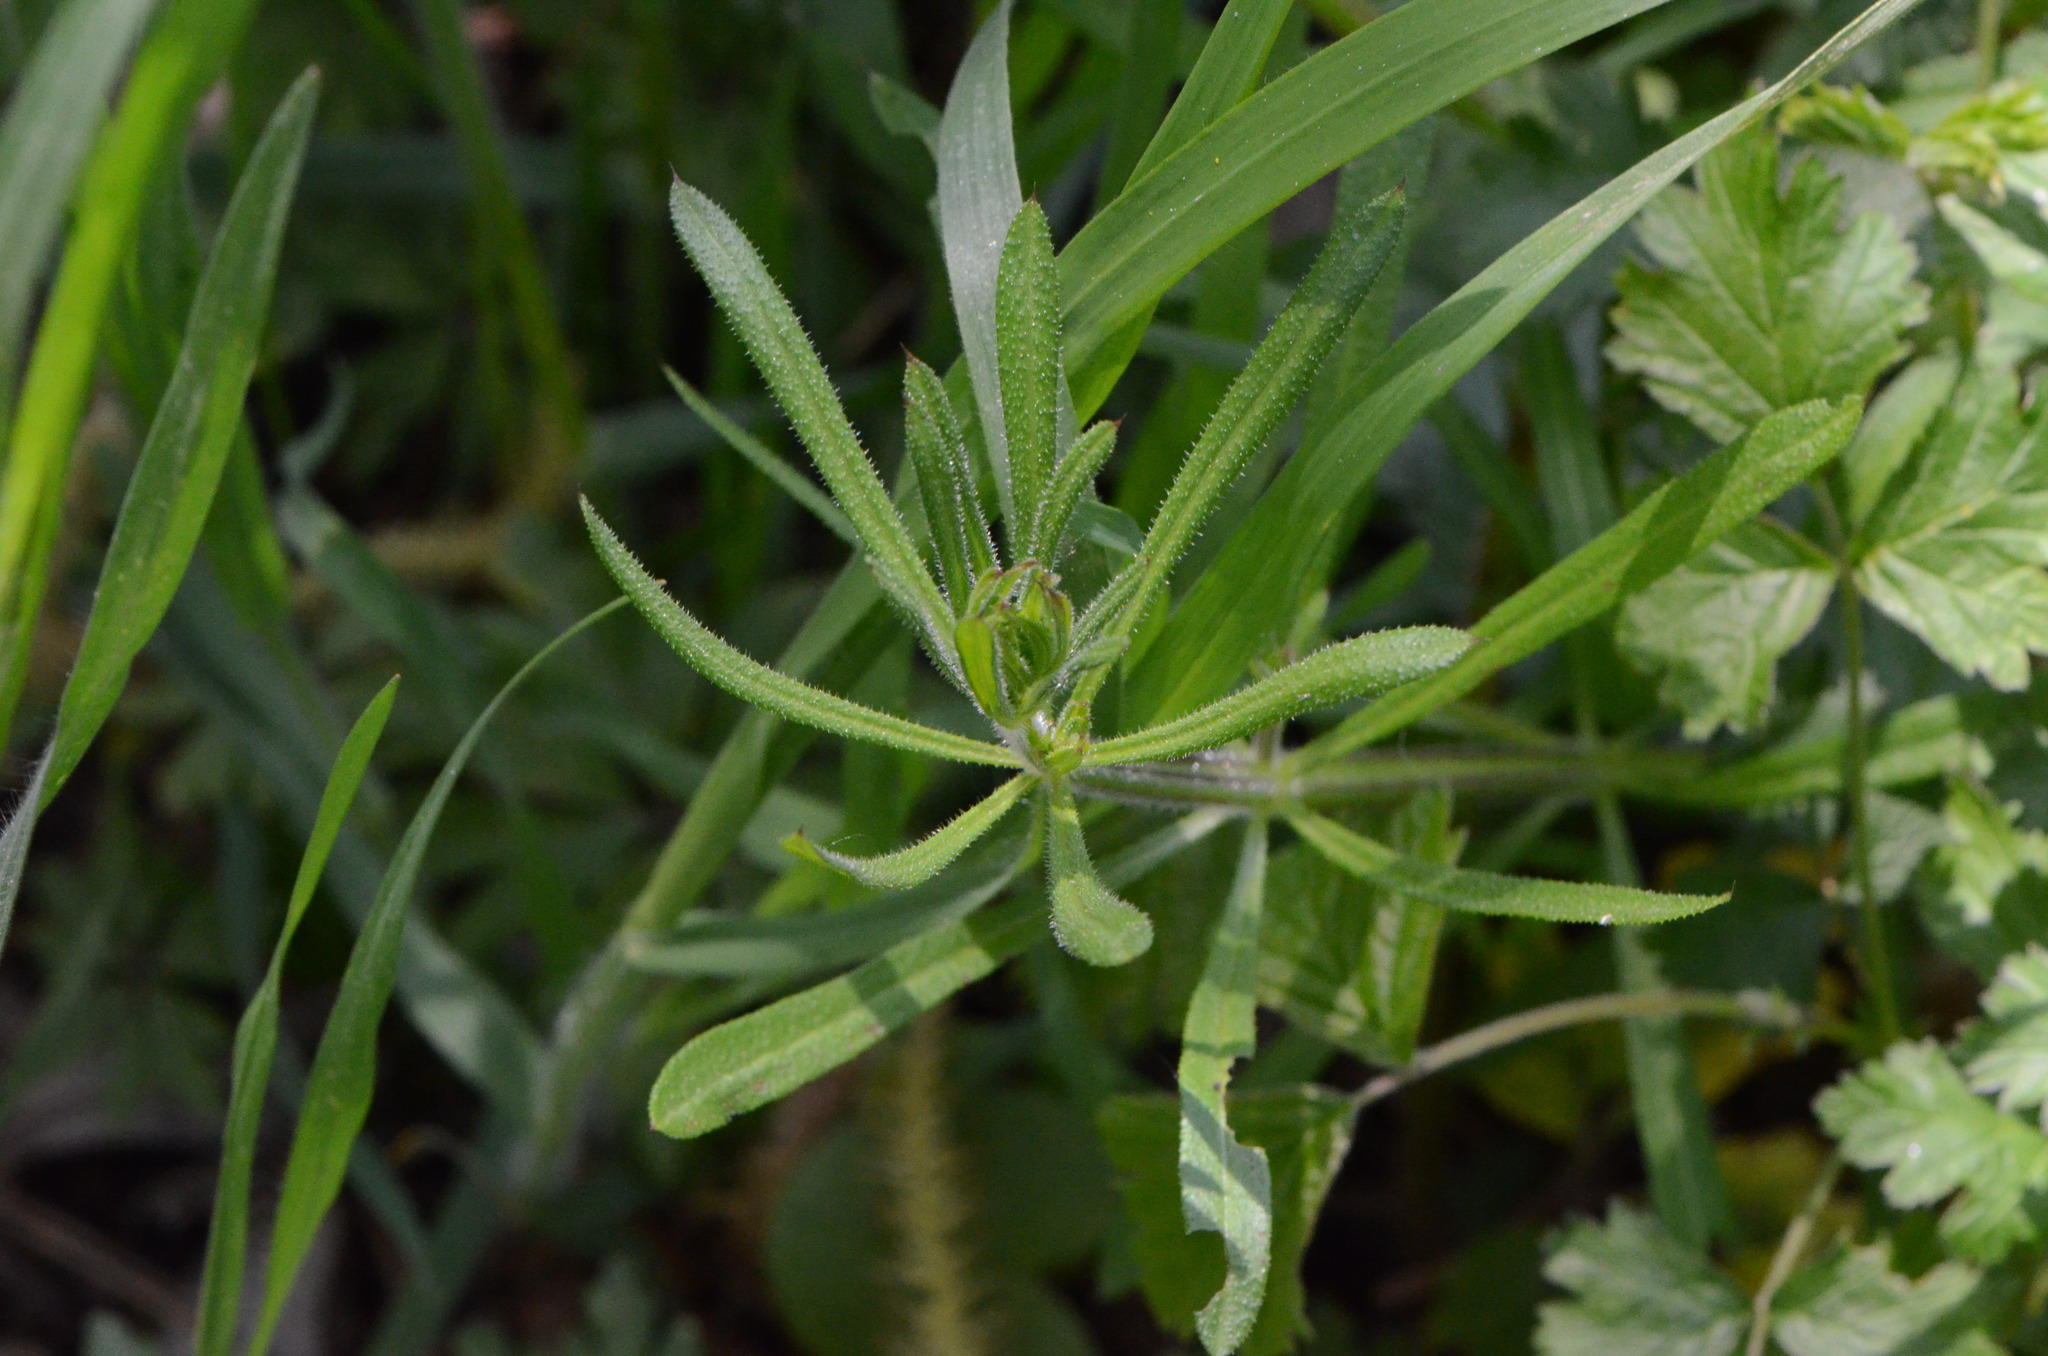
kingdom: Plantae
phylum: Tracheophyta
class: Magnoliopsida
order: Gentianales
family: Rubiaceae
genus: Galium
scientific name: Galium aparine
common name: Cleavers
